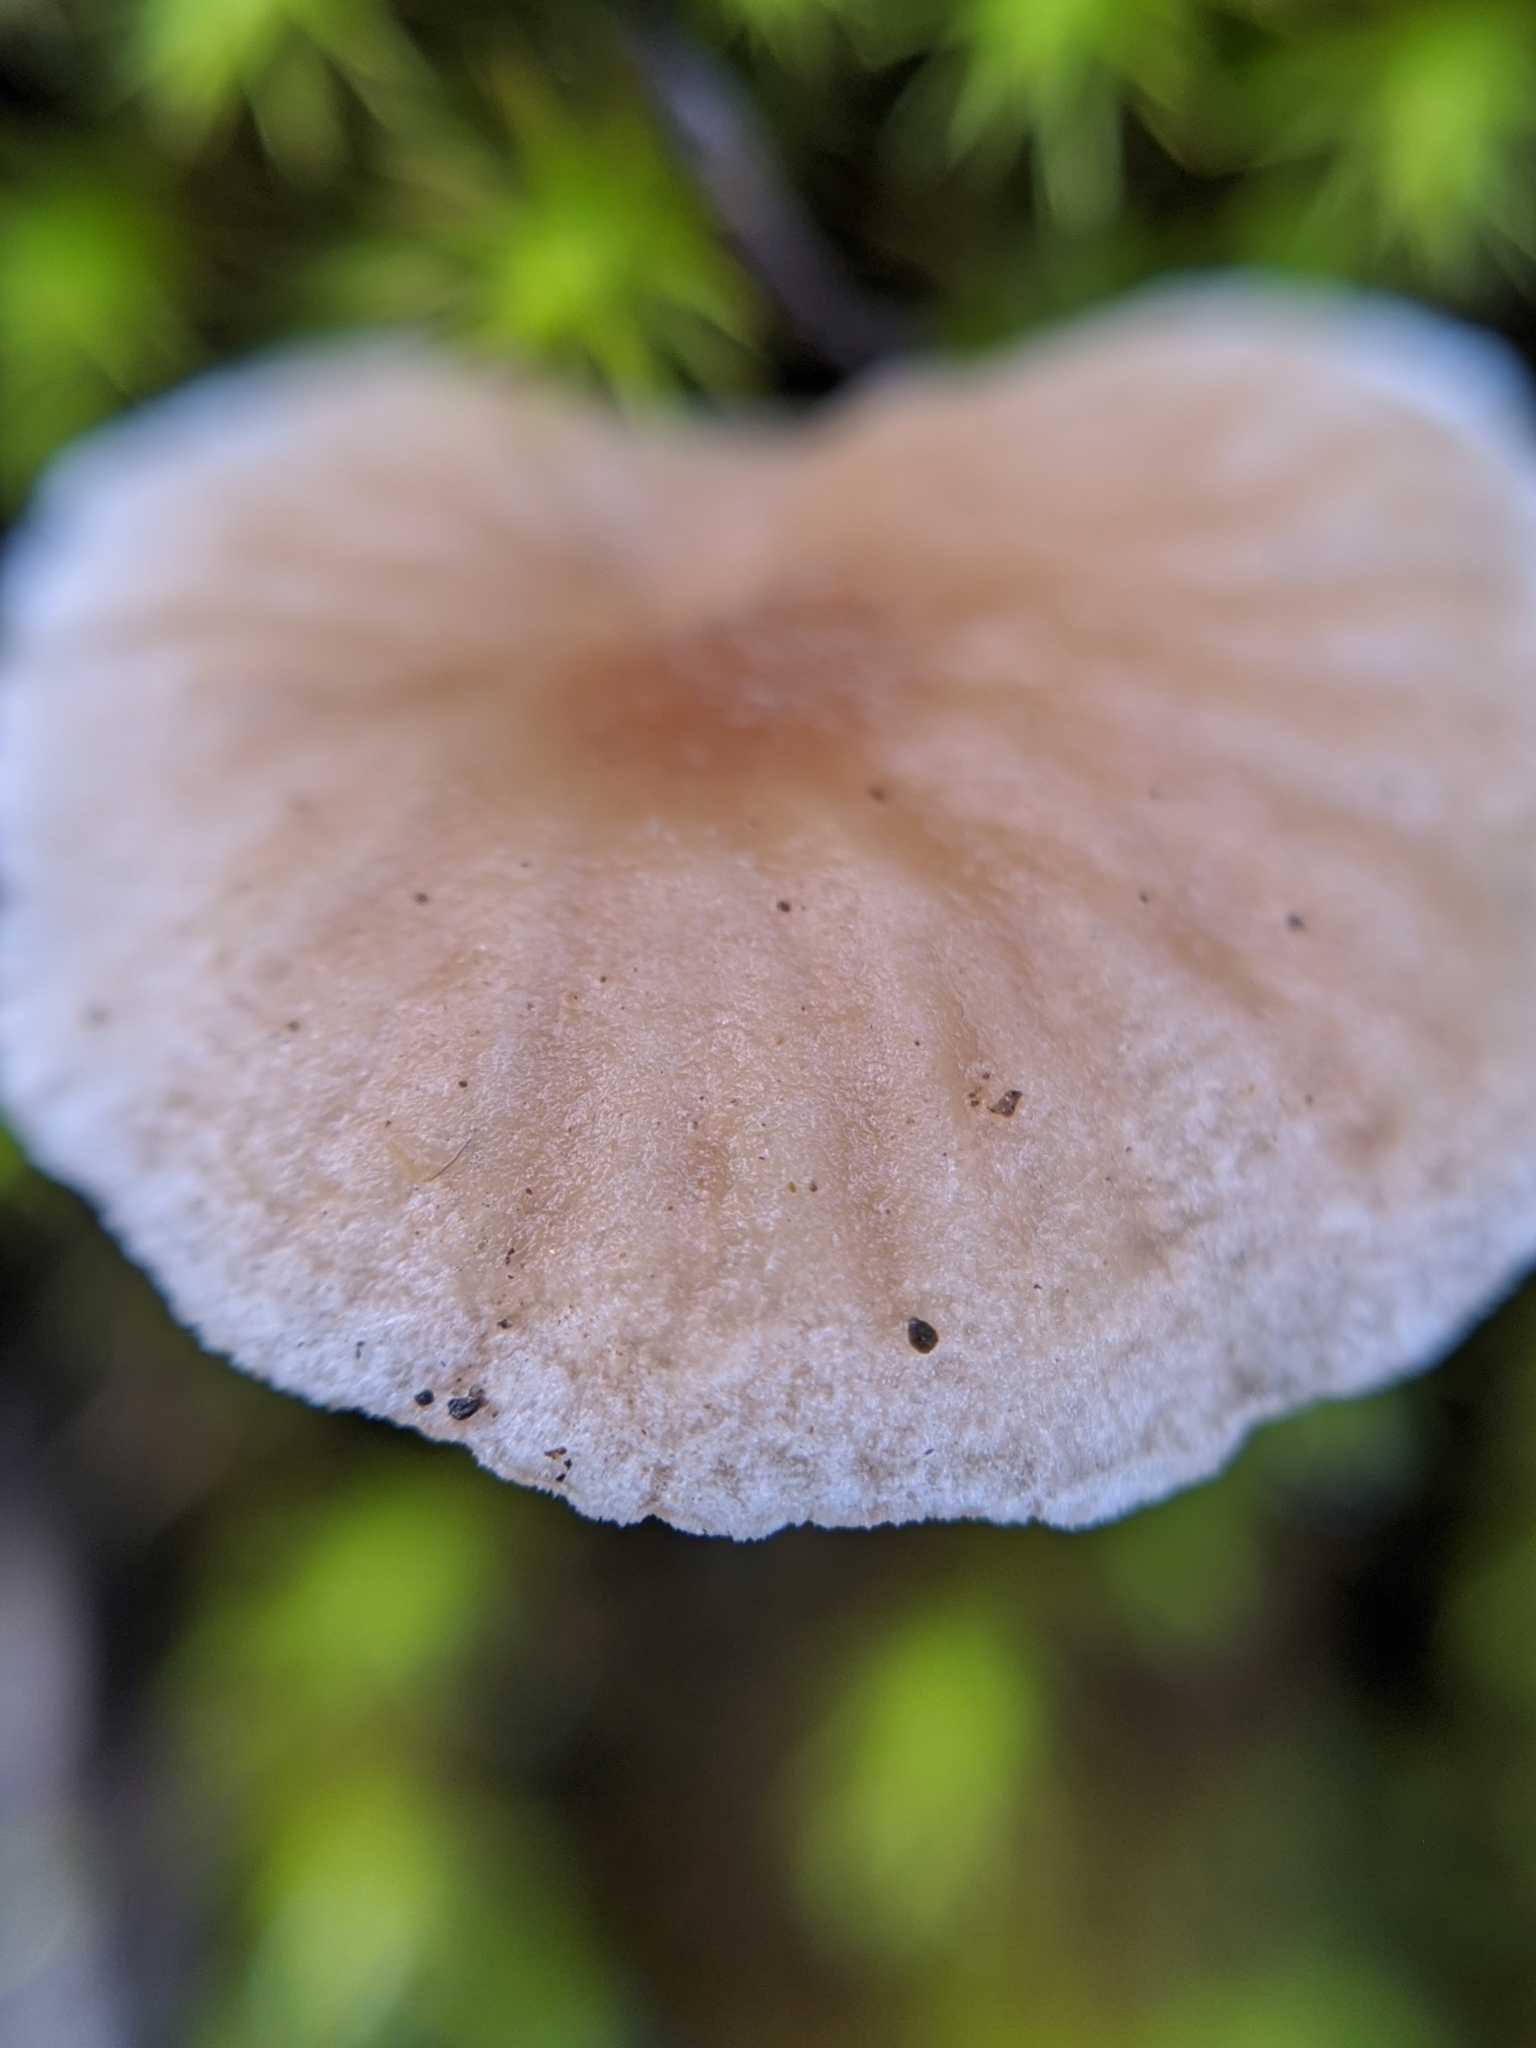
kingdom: Fungi
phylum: Basidiomycota
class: Agaricomycetes
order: Agaricales
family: Hygrophoraceae
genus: Lichenomphalia
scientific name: Lichenomphalia
